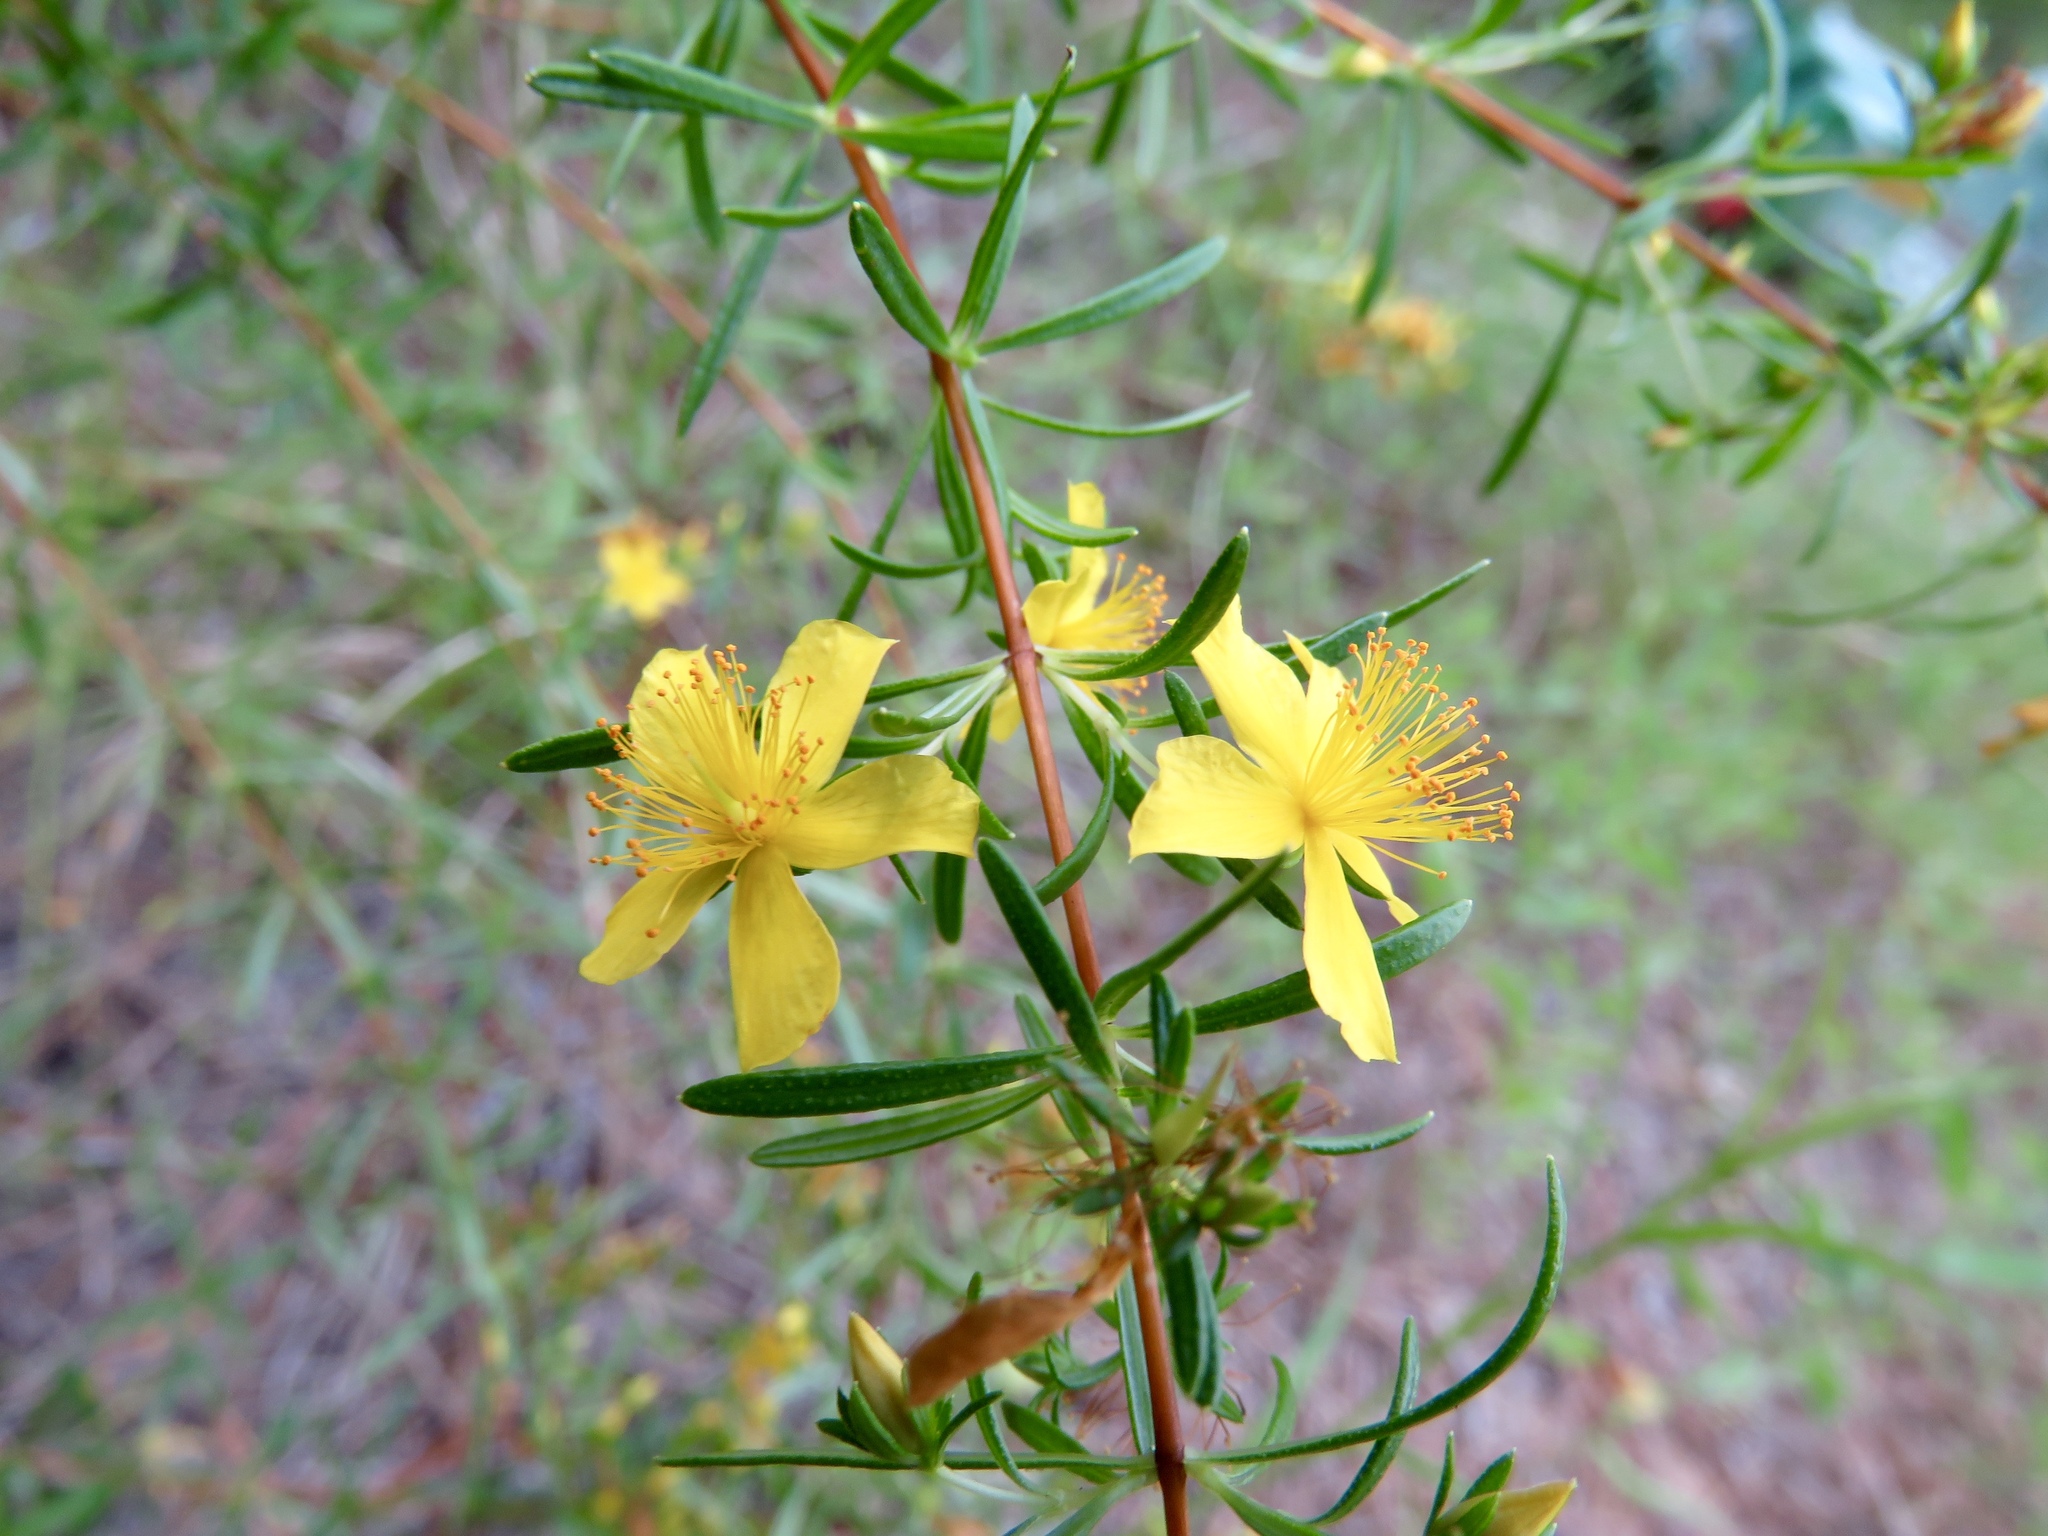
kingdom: Plantae
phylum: Tracheophyta
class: Magnoliopsida
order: Malpighiales
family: Hypericaceae
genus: Hypericum
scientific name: Hypericum galioides
